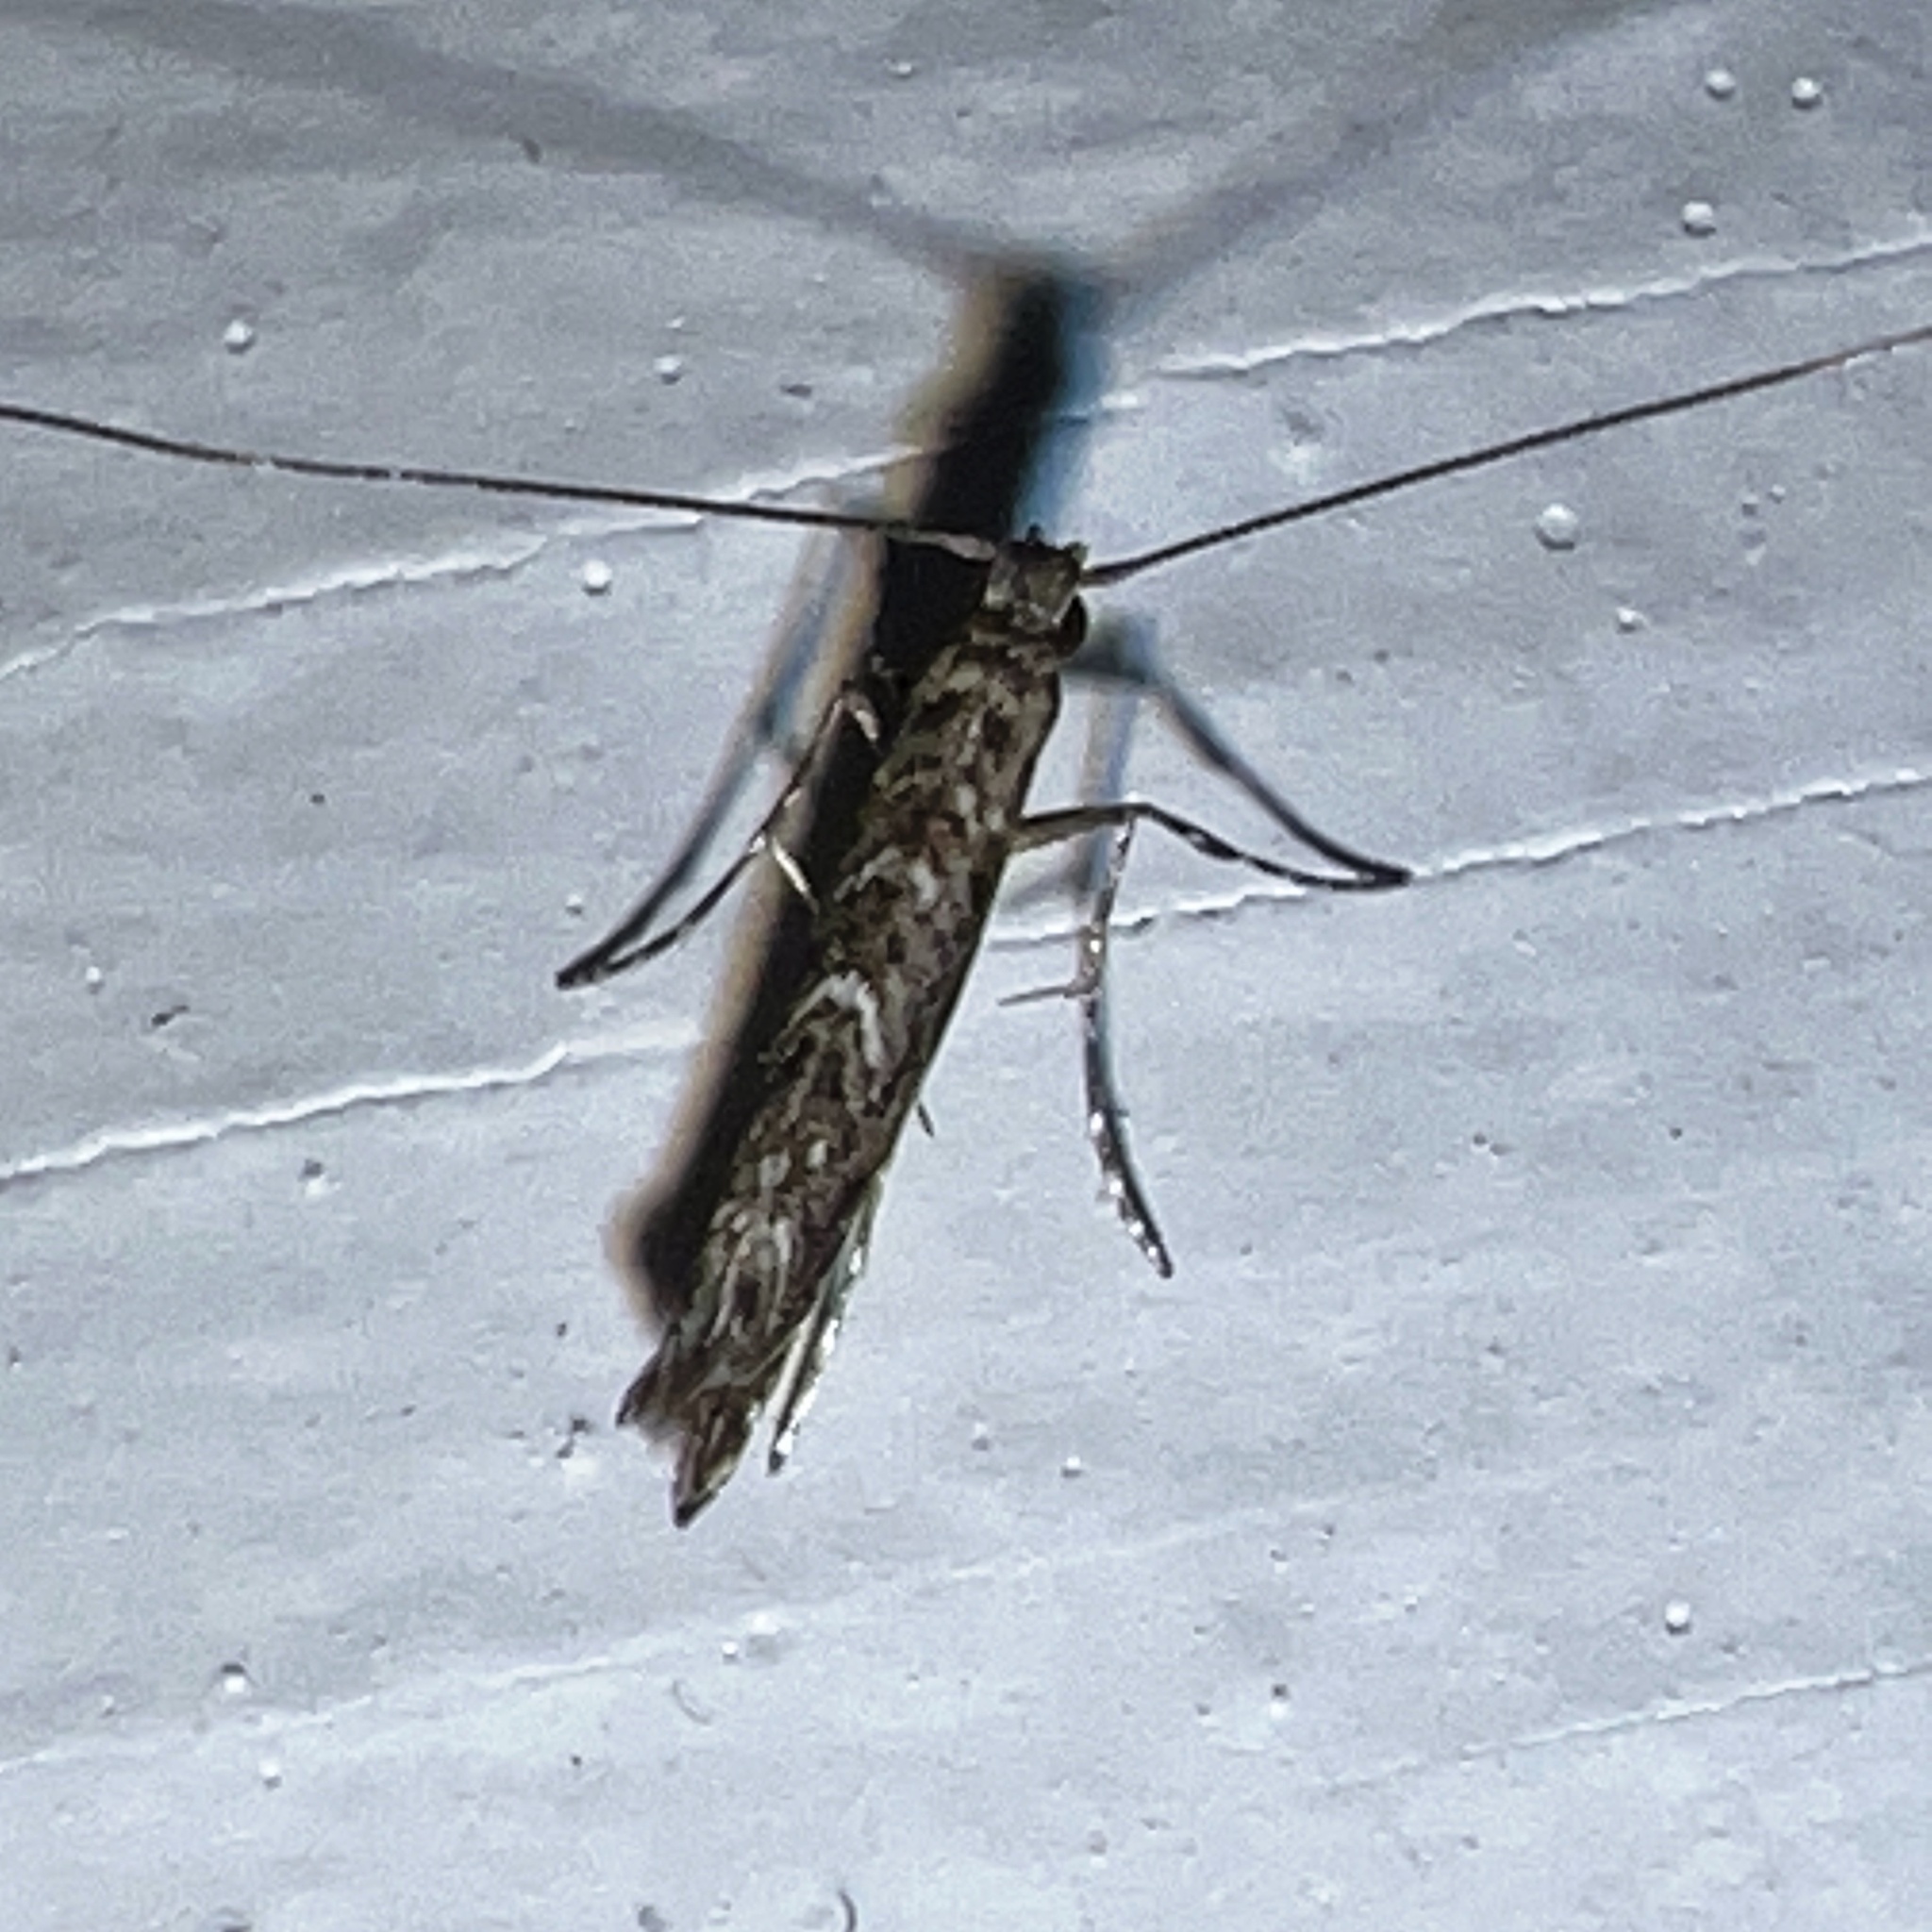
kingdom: Animalia
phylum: Arthropoda
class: Insecta
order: Lepidoptera
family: Gracillariidae
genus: Neurobathra
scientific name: Neurobathra strigifinitella
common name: Finite-channeled leafminer moth
